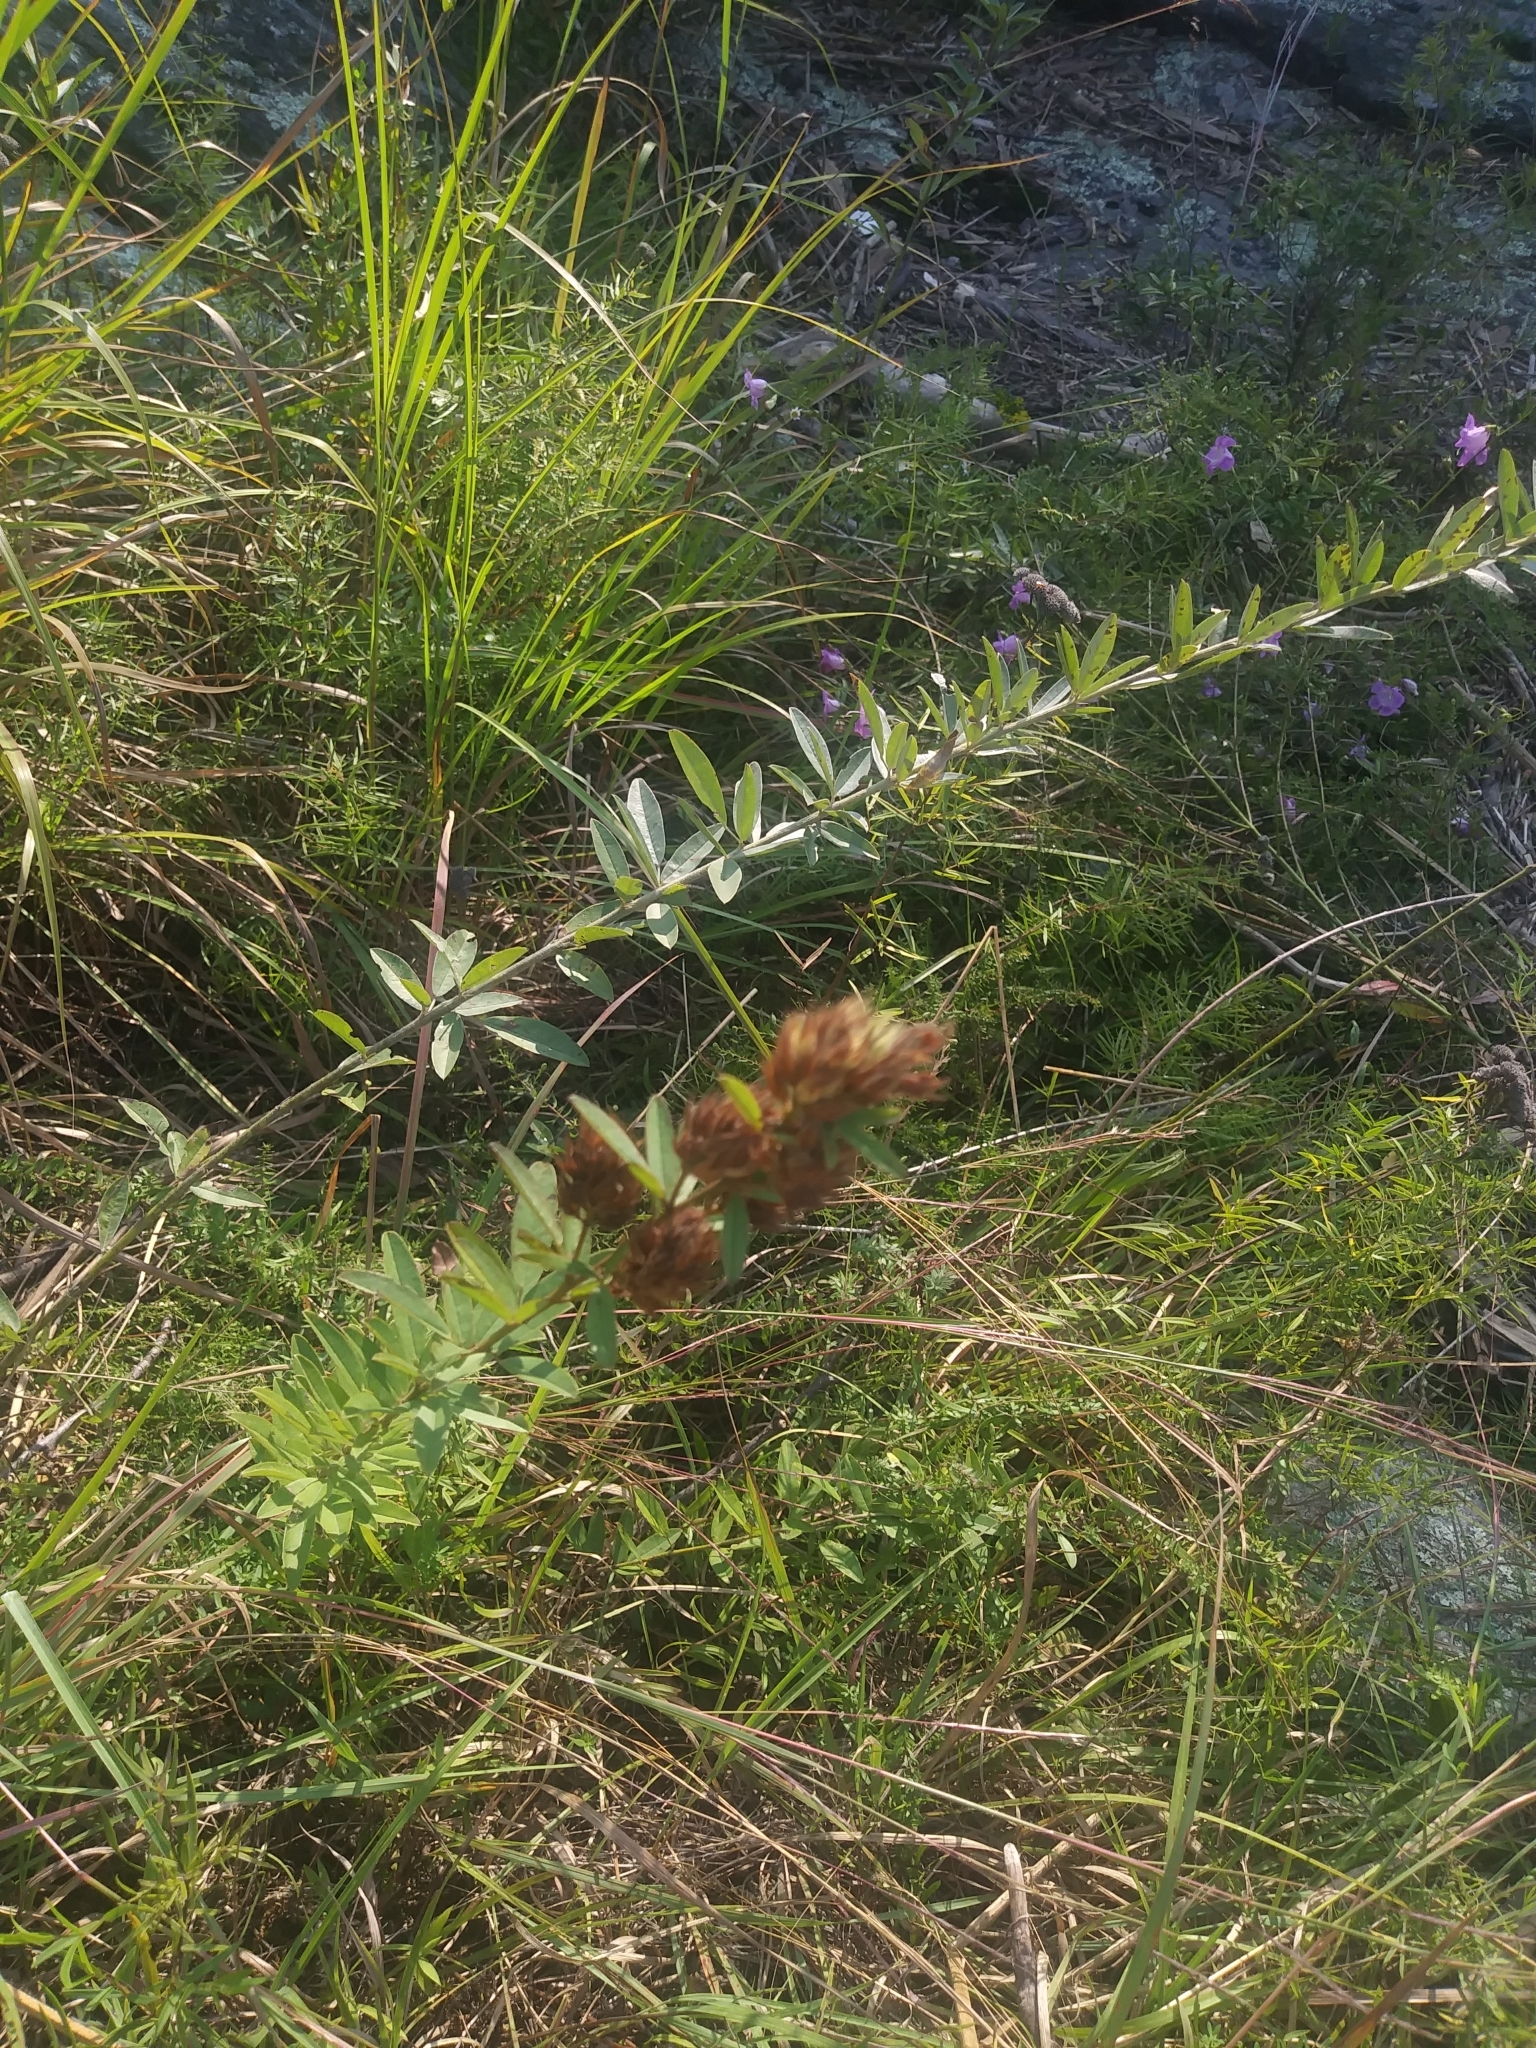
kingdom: Plantae
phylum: Tracheophyta
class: Magnoliopsida
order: Fabales
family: Fabaceae
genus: Lespedeza
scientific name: Lespedeza capitata
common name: Dusty clover
